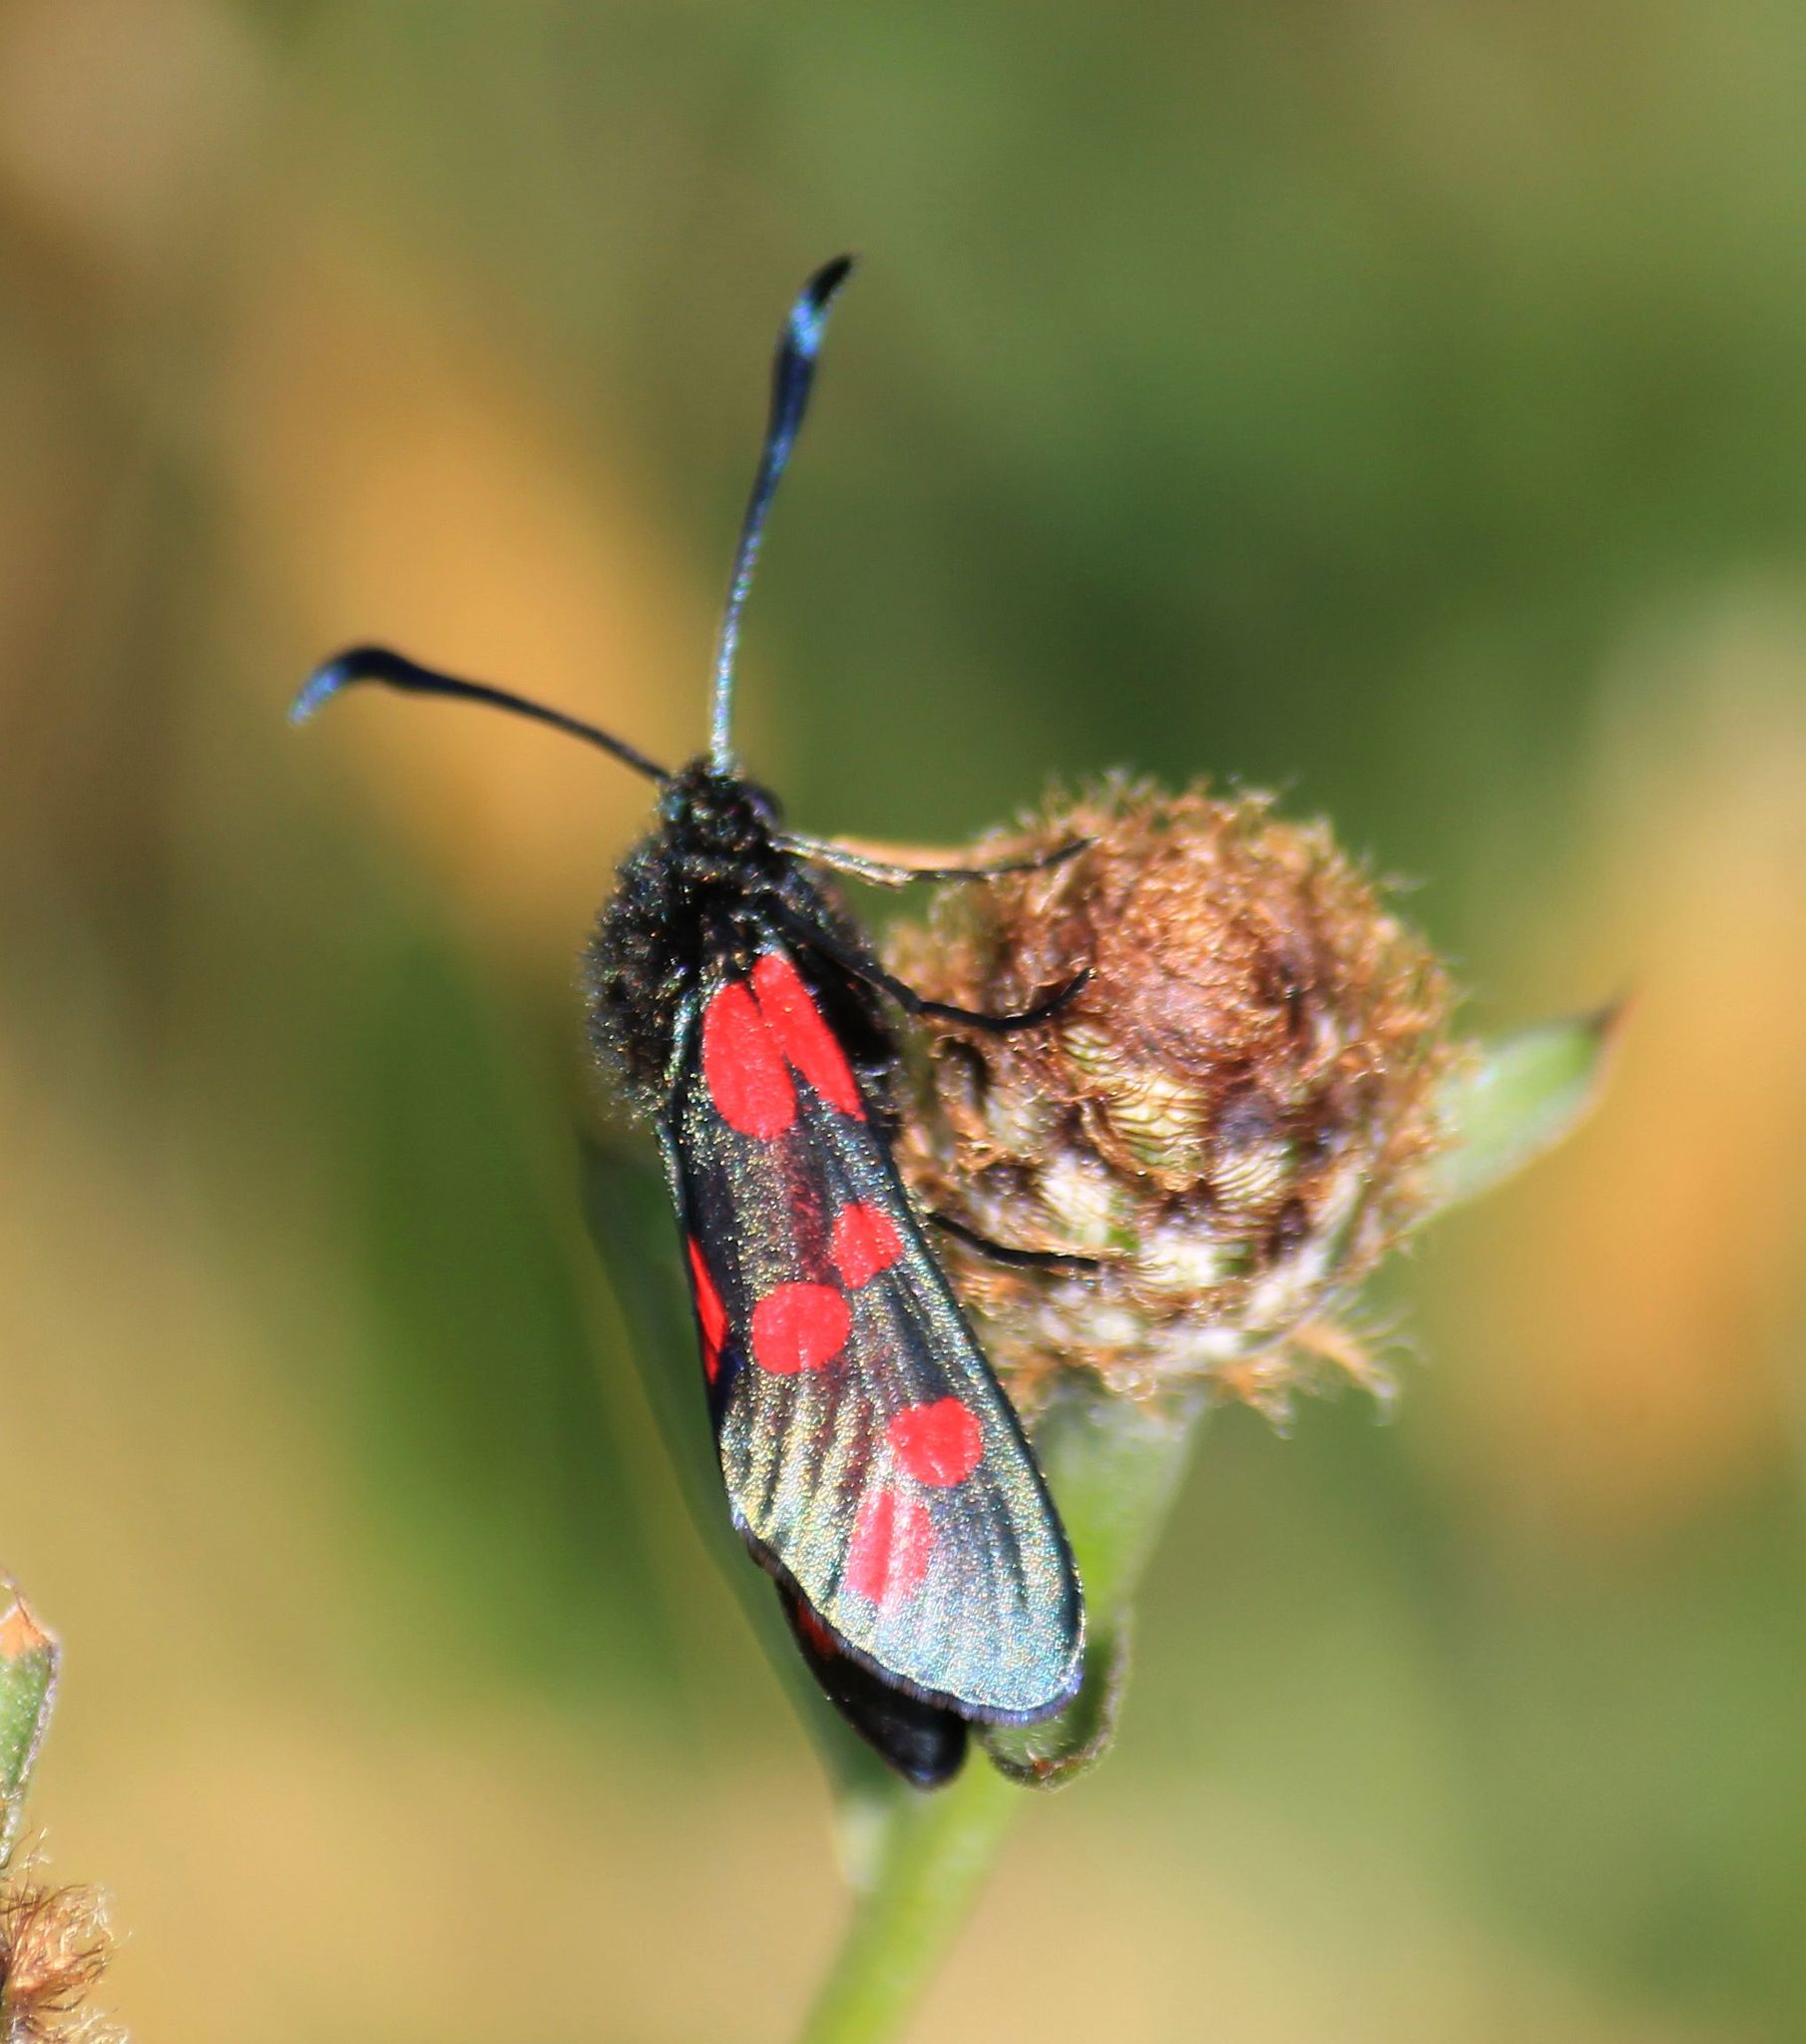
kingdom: Animalia
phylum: Arthropoda
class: Insecta
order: Lepidoptera
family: Zygaenidae
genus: Zygaena
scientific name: Zygaena filipendulae
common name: Six-spot burnet
